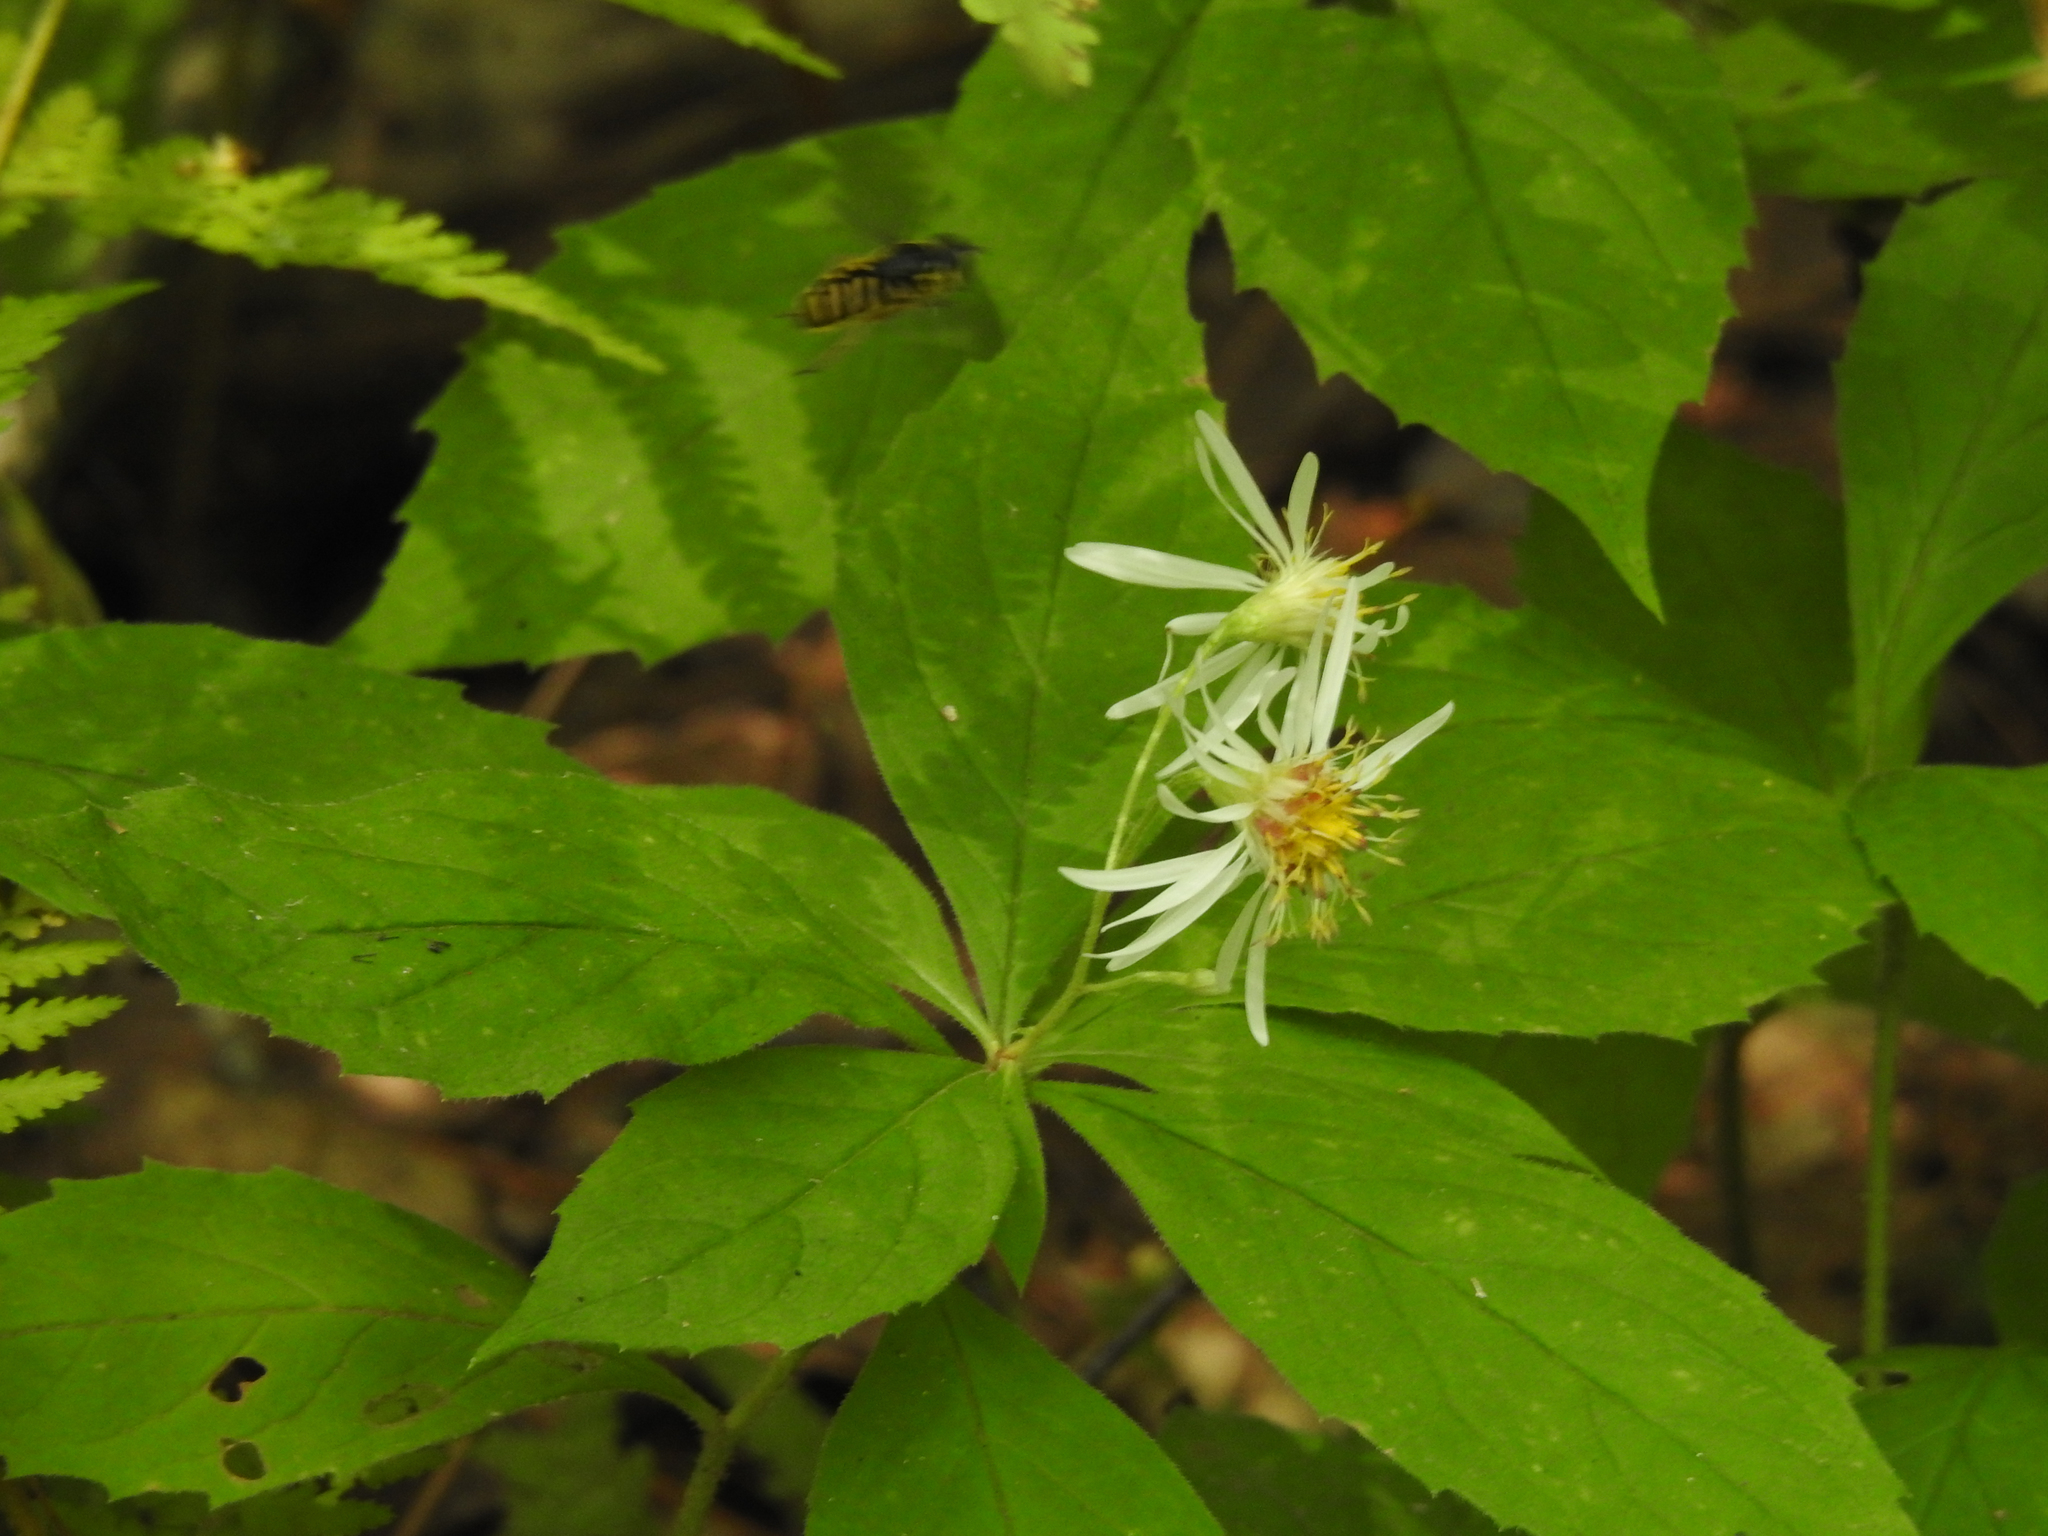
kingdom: Plantae
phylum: Tracheophyta
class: Magnoliopsida
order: Asterales
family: Asteraceae
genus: Oclemena
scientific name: Oclemena acuminata
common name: Mountain aster
